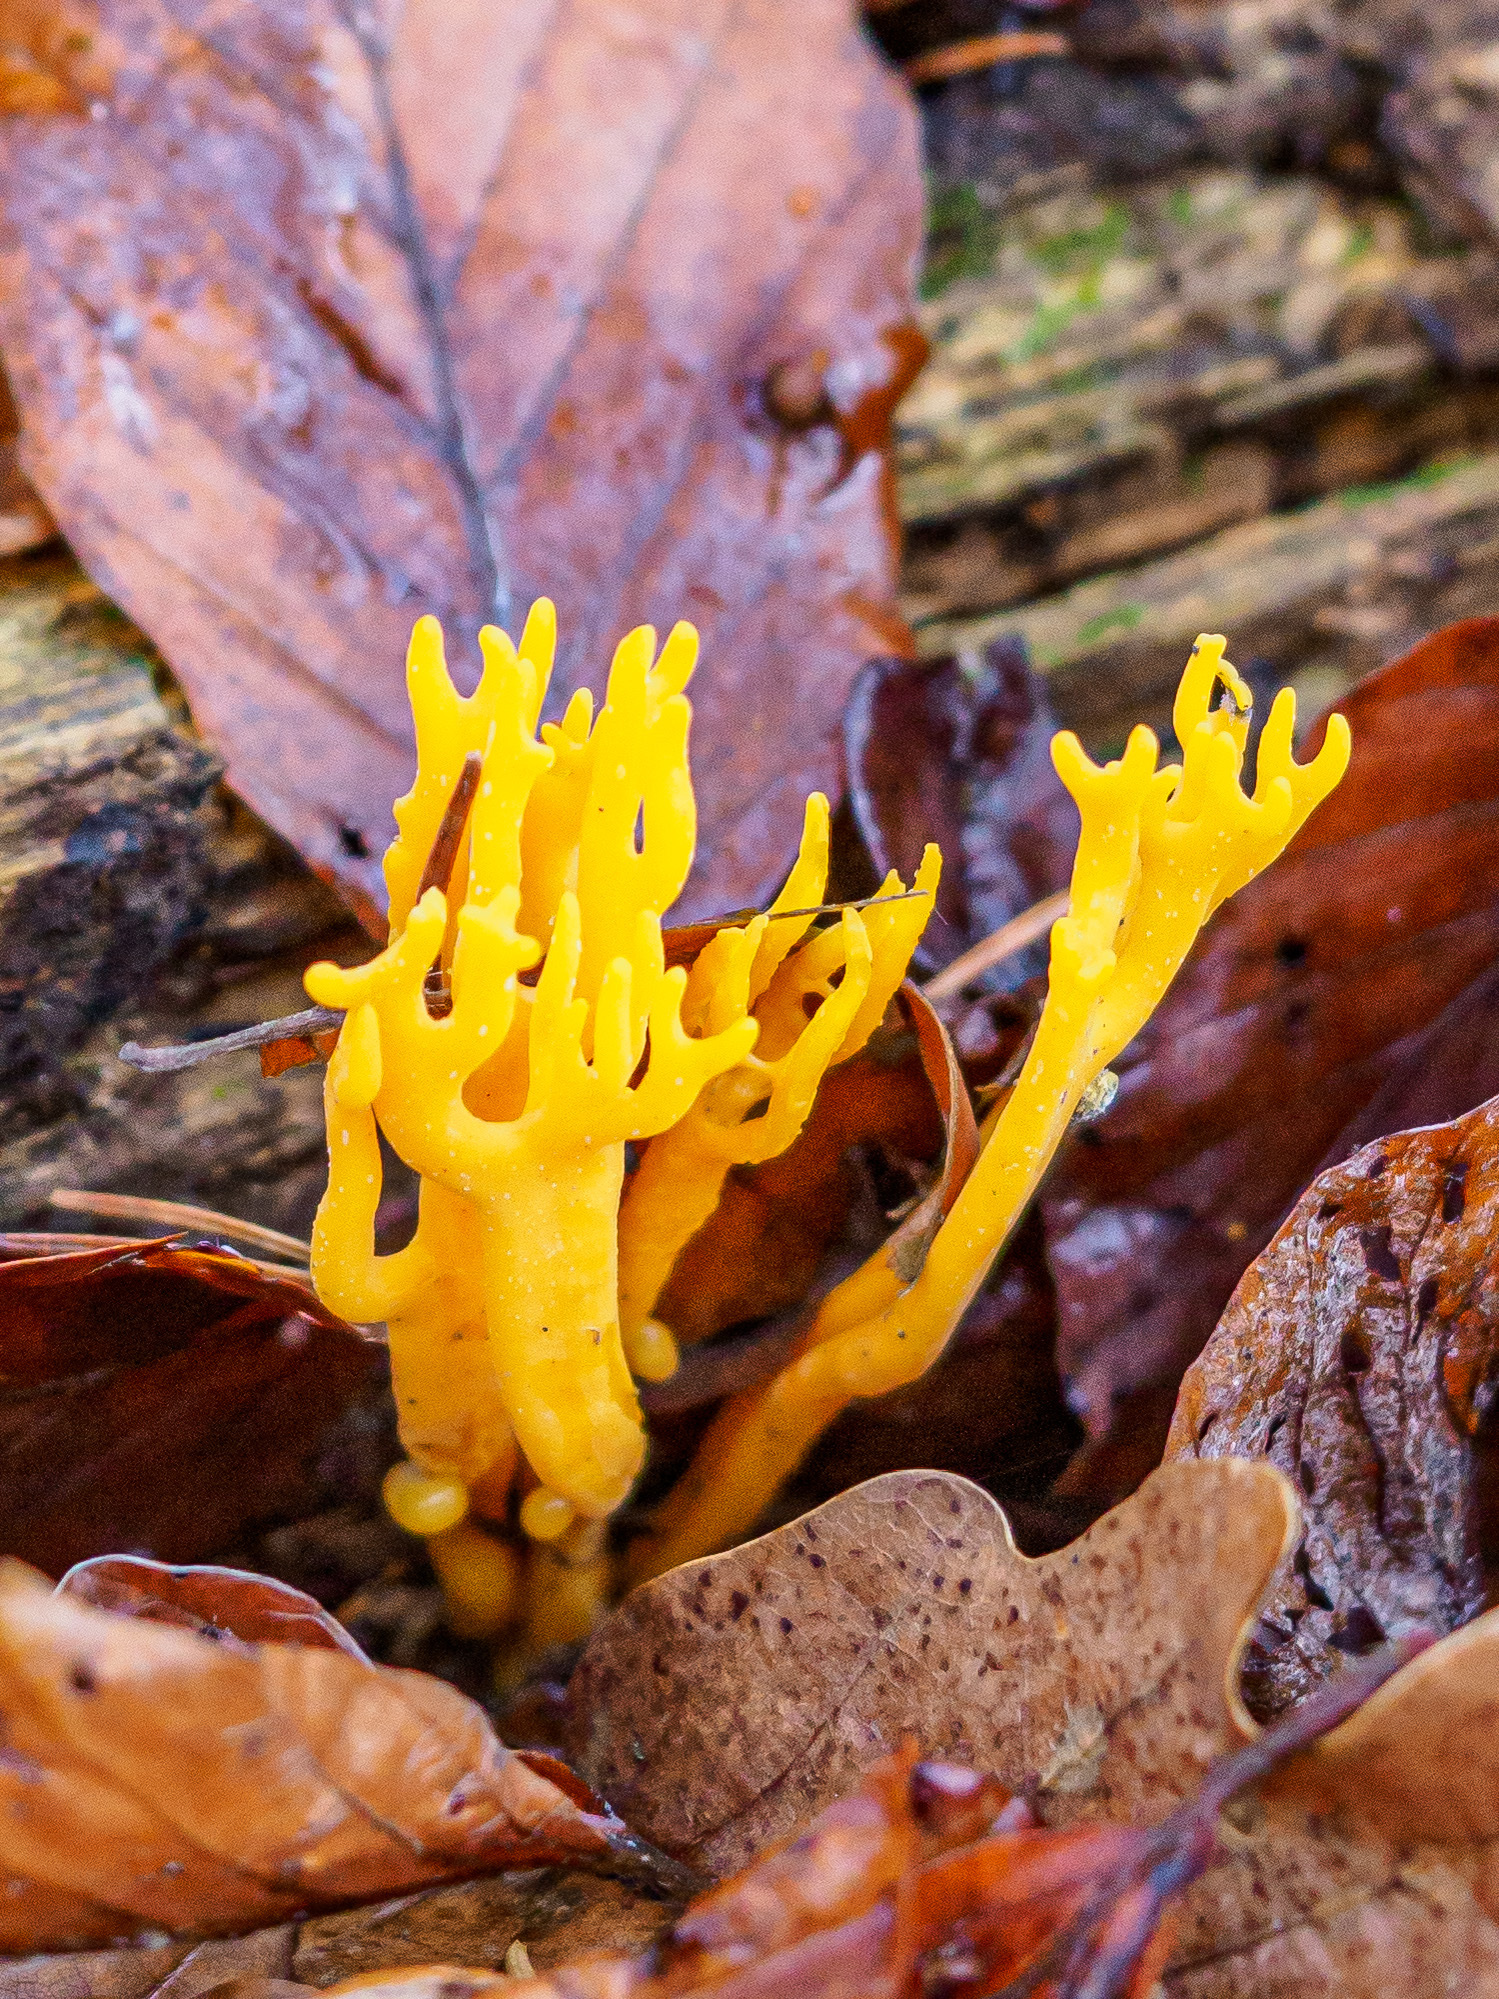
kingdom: Fungi
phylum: Basidiomycota
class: Dacrymycetes
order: Dacrymycetales
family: Dacrymycetaceae
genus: Calocera
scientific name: Calocera viscosa
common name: Yellow stagshorn
